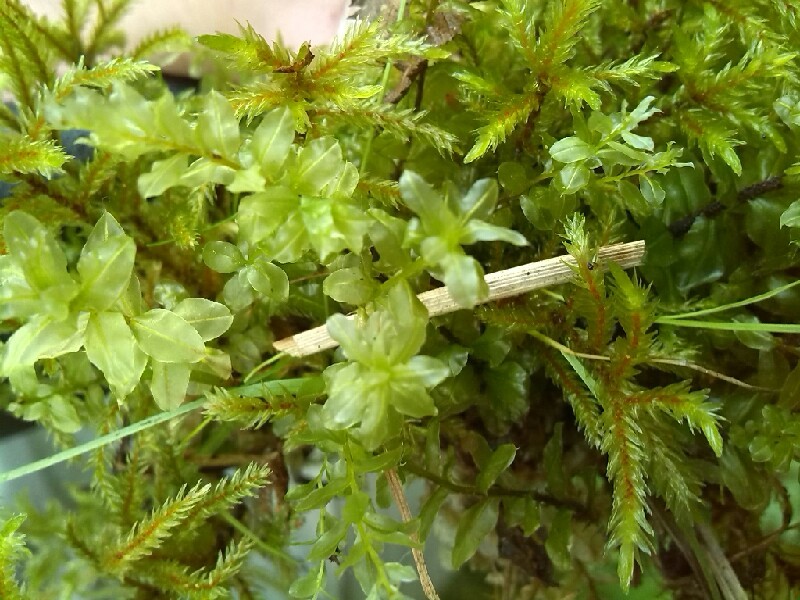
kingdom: Plantae
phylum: Bryophyta
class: Bryopsida
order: Hypnales
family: Climaciaceae
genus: Climacium
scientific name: Climacium dendroides
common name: Northern tree moss
